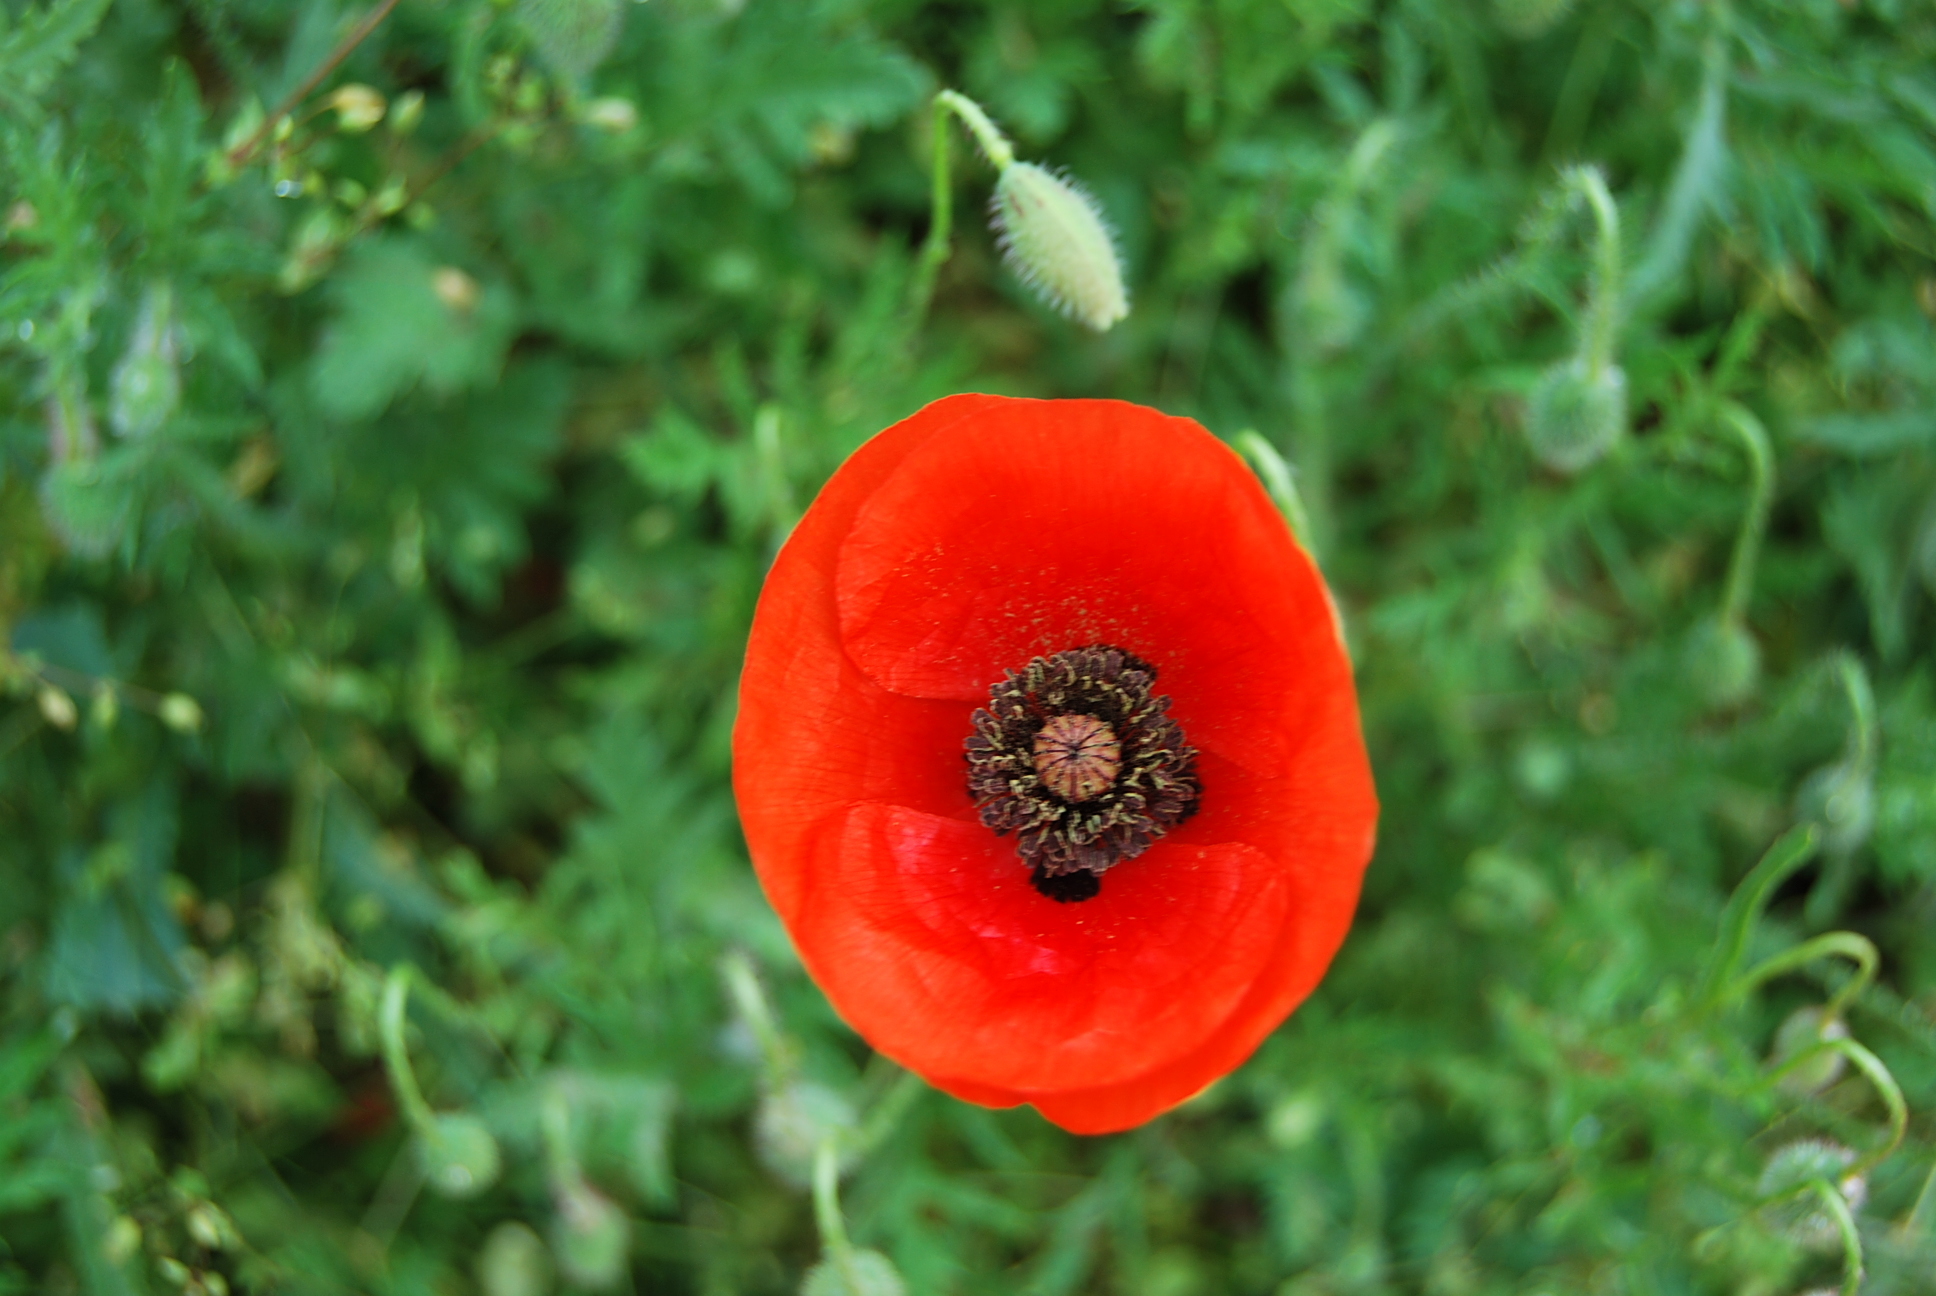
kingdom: Plantae
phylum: Tracheophyta
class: Magnoliopsida
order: Ranunculales
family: Papaveraceae
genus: Papaver
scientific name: Papaver rhoeas
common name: Corn poppy
